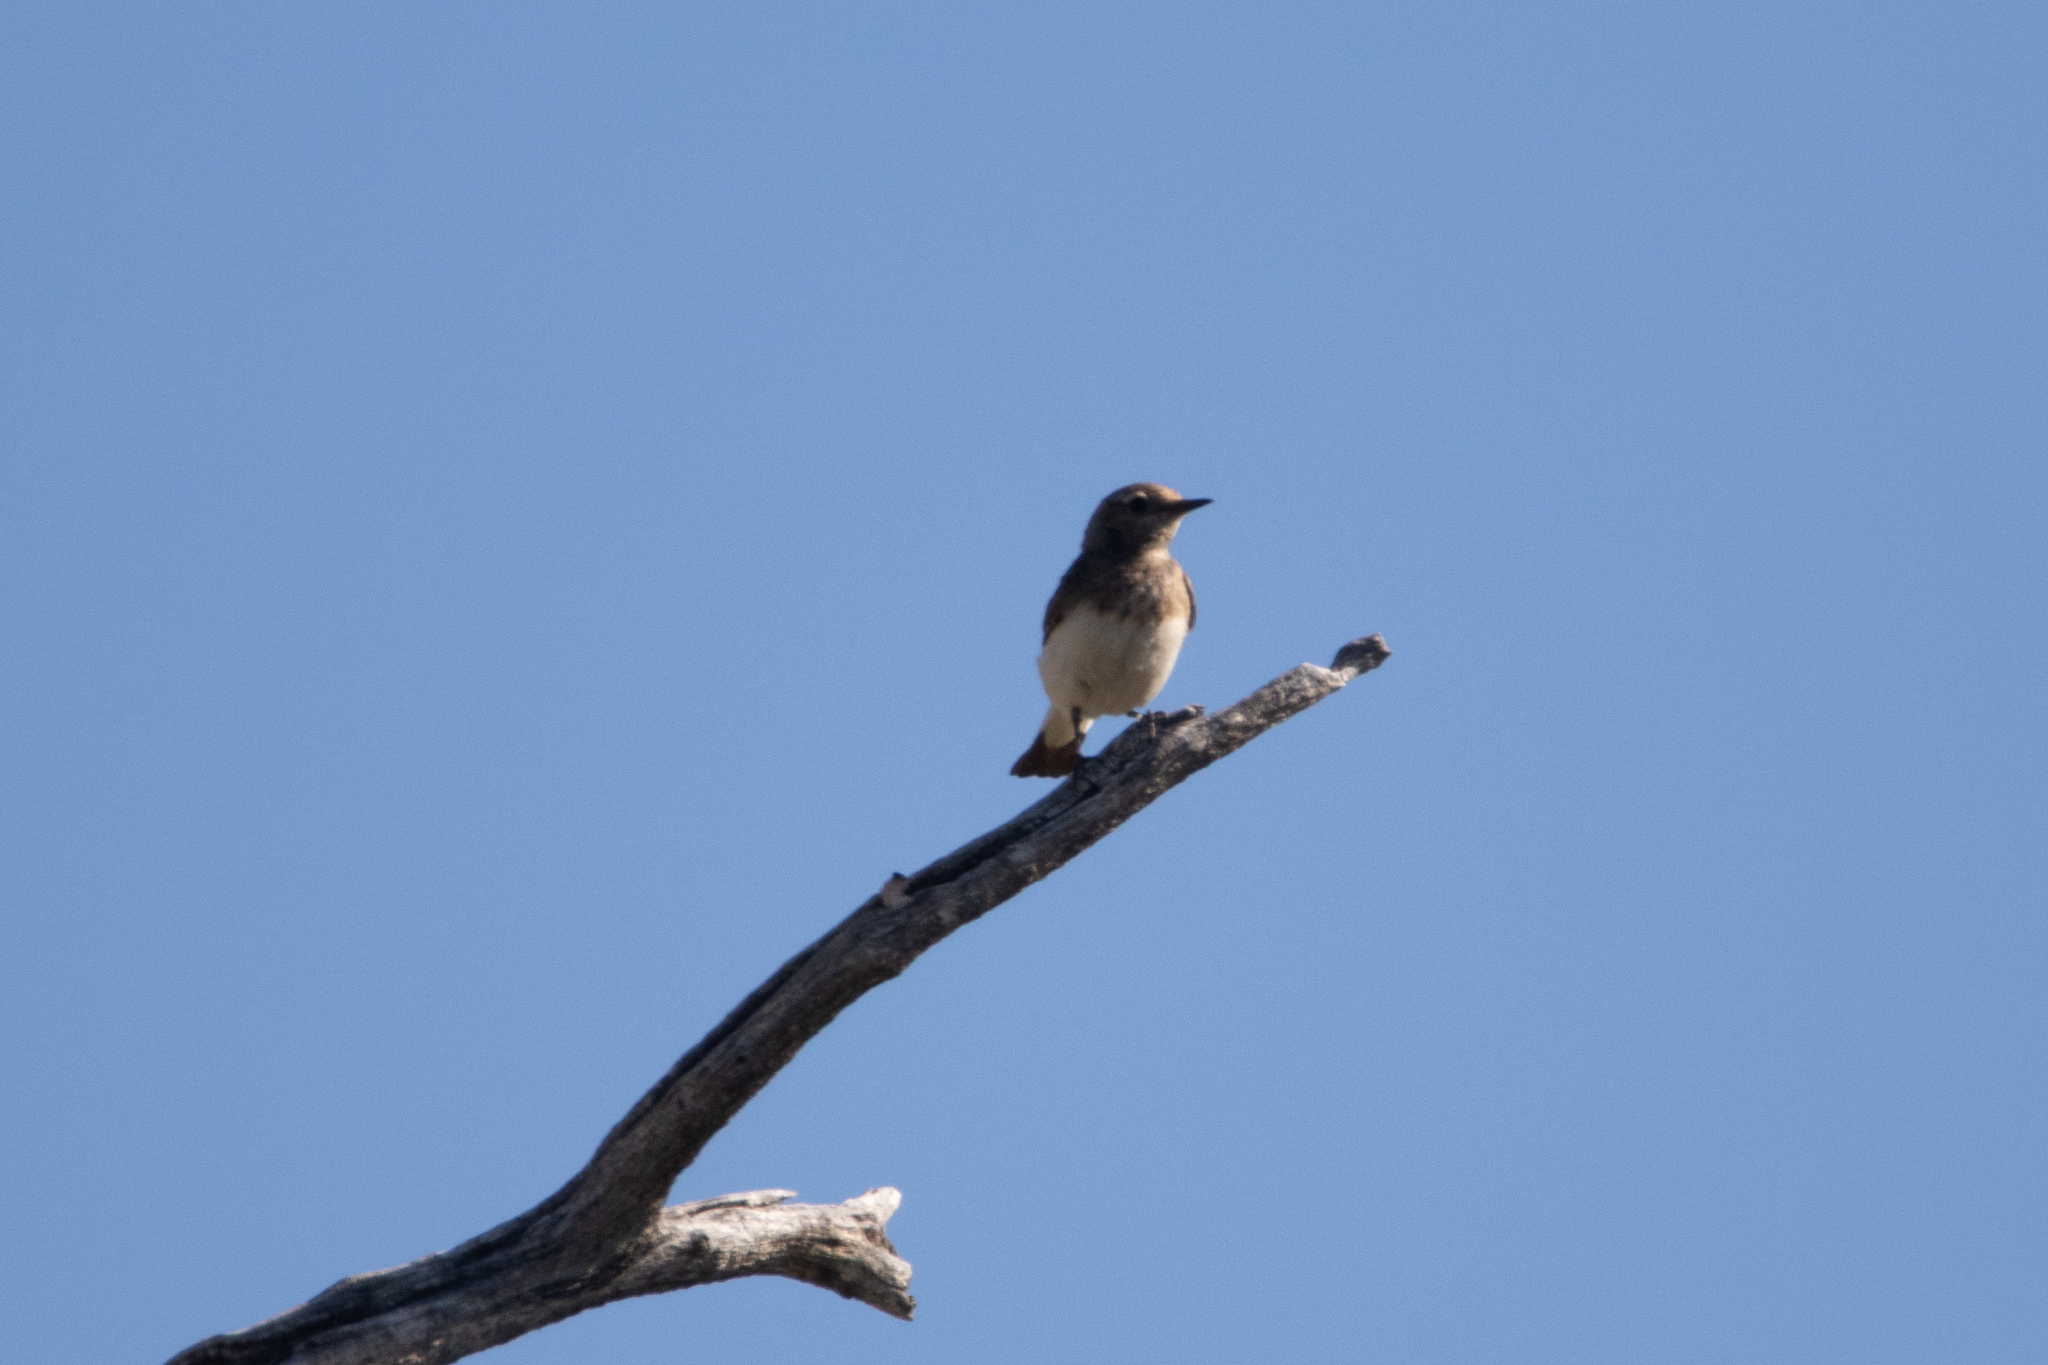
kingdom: Animalia
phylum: Chordata
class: Aves
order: Passeriformes
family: Muscicapidae
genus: Oenanthe
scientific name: Oenanthe pleschanka
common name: Pied wheatear
